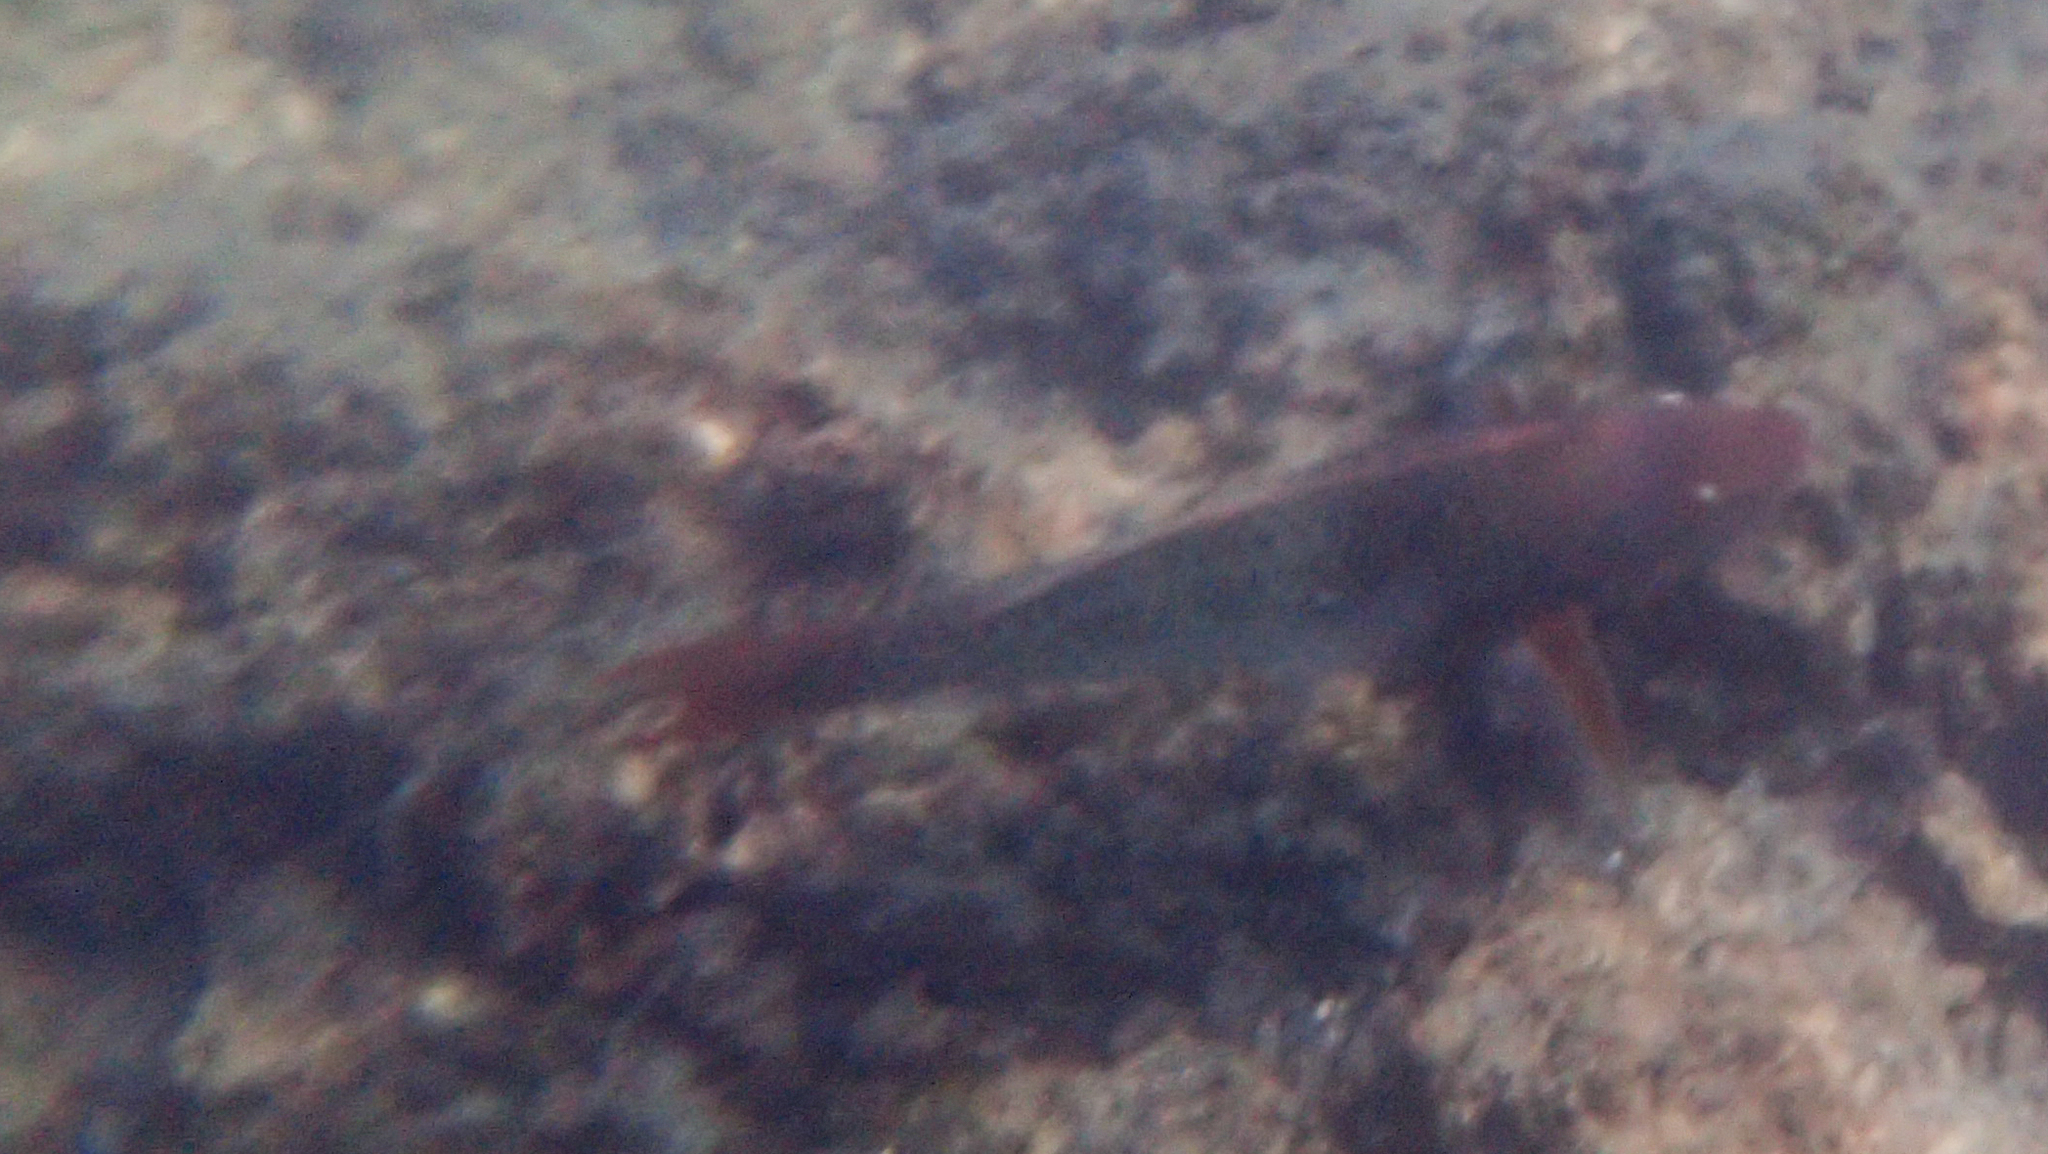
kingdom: Animalia
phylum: Chordata
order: Perciformes
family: Scaridae
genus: Scarus
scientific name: Scarus rubroviolaceus
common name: Ember parrotfish
